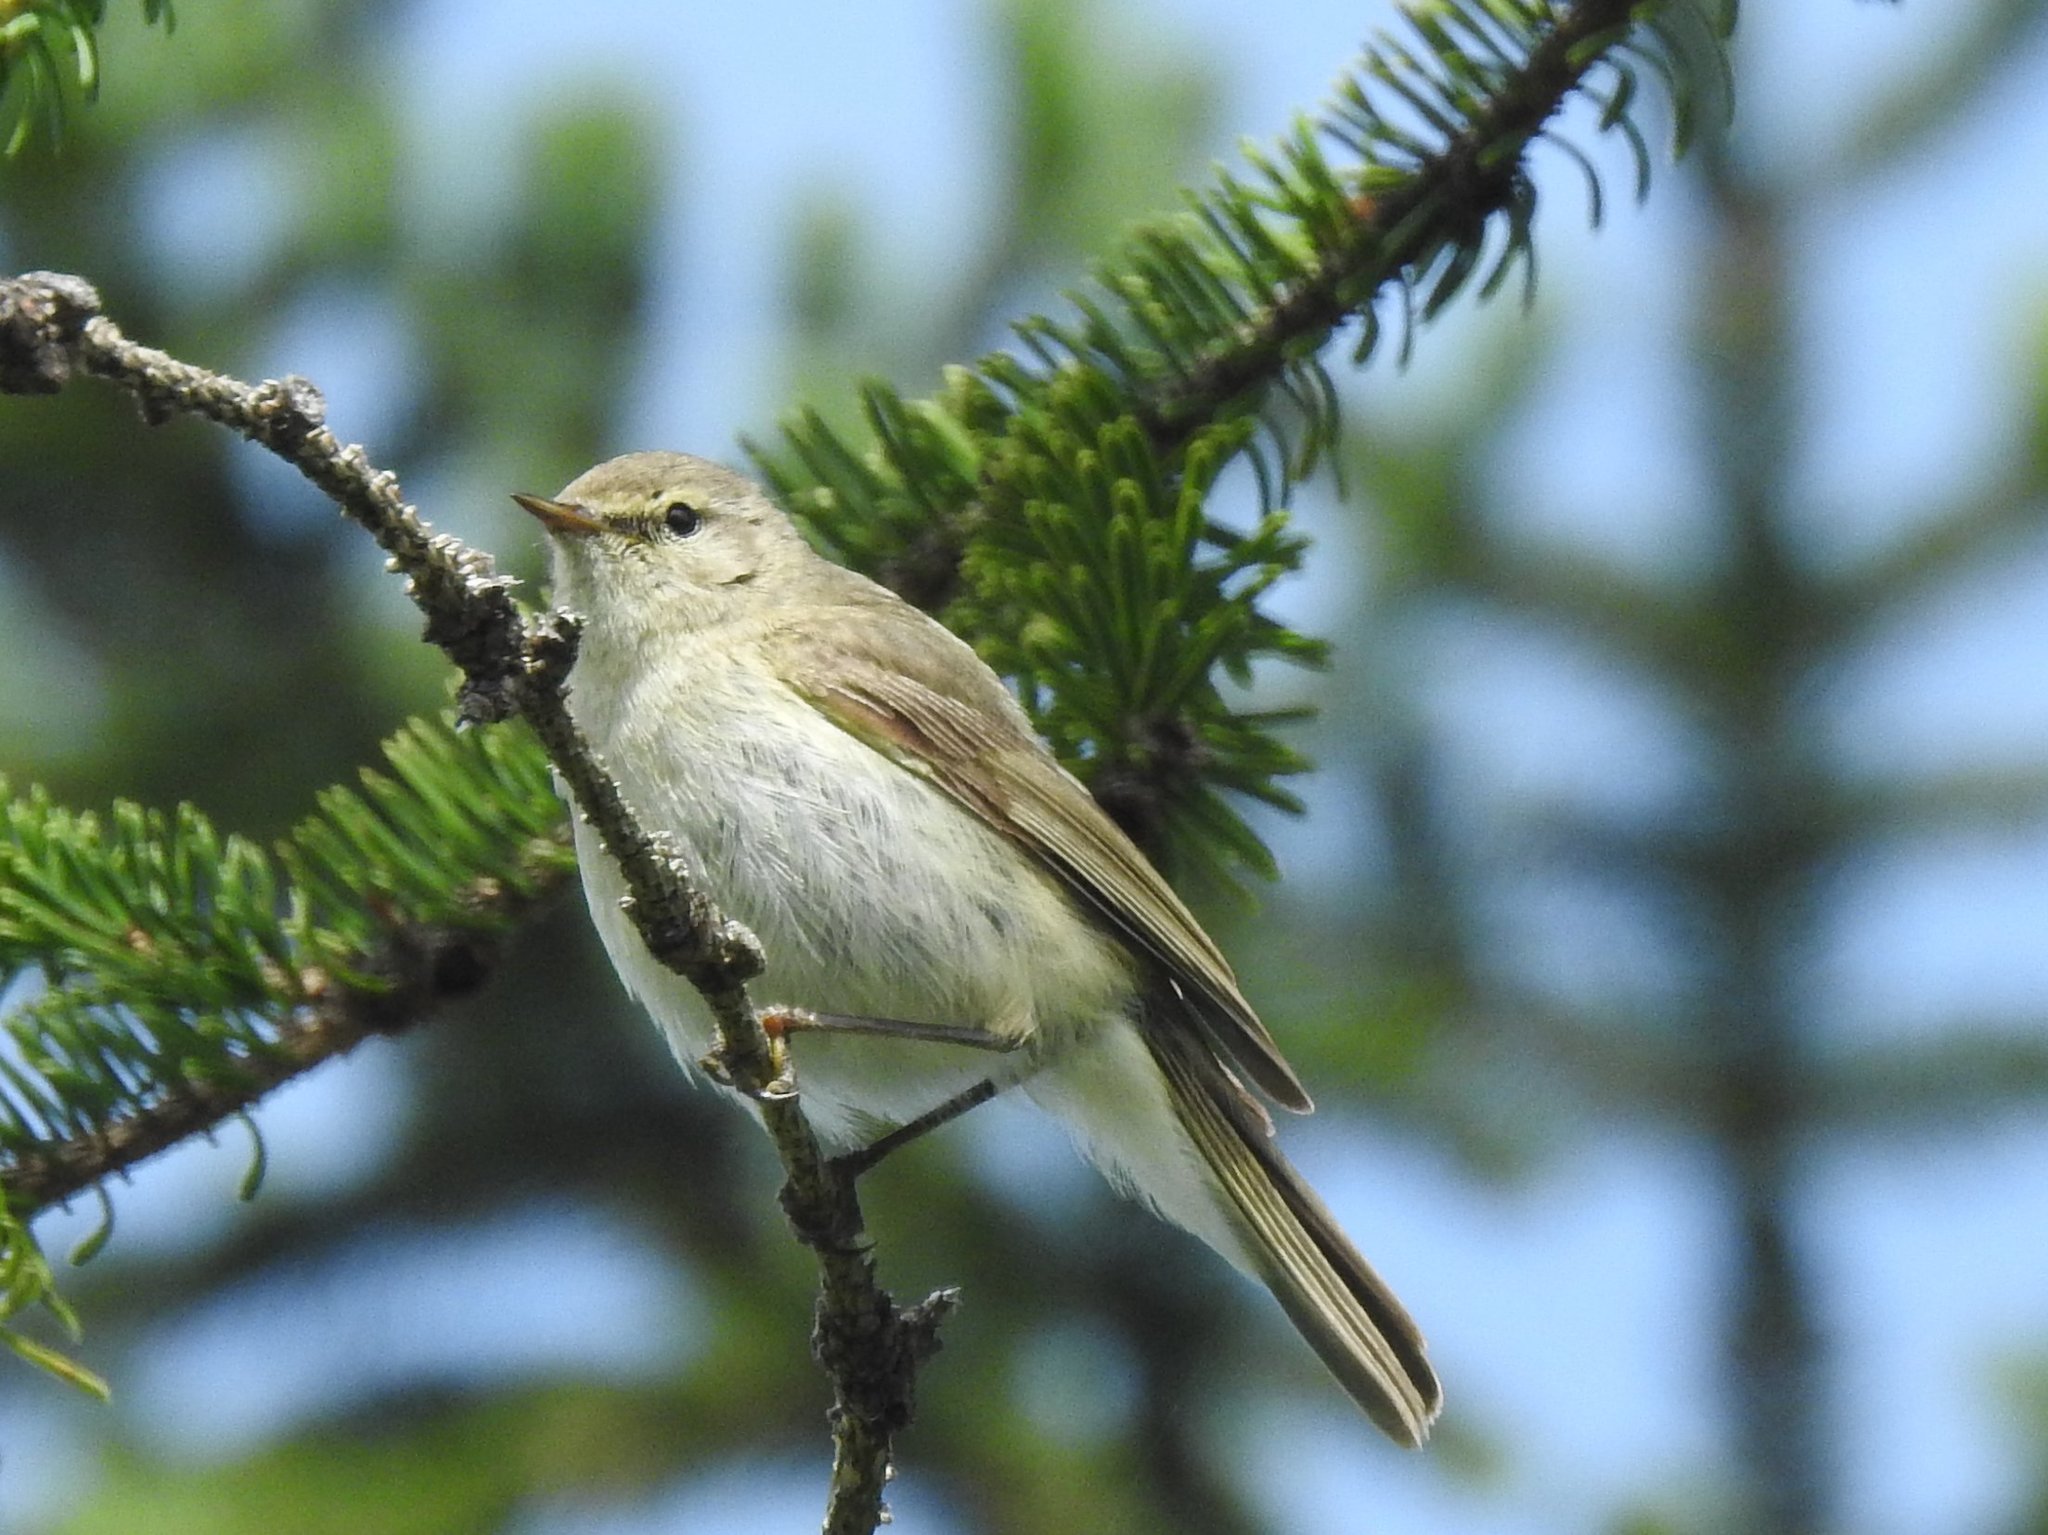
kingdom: Animalia
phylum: Chordata
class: Aves
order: Passeriformes
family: Phylloscopidae
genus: Phylloscopus
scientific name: Phylloscopus collybita
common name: Common chiffchaff
